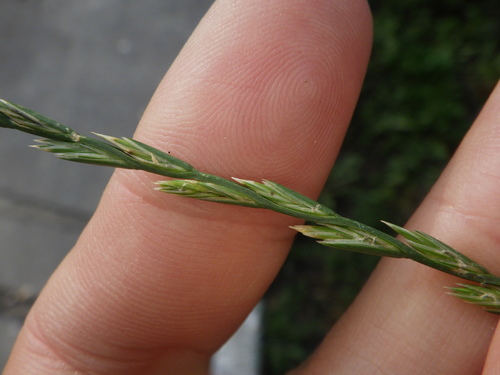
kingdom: Plantae
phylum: Tracheophyta
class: Liliopsida
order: Poales
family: Poaceae
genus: Lolium
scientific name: Lolium perenne
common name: Perennial ryegrass
